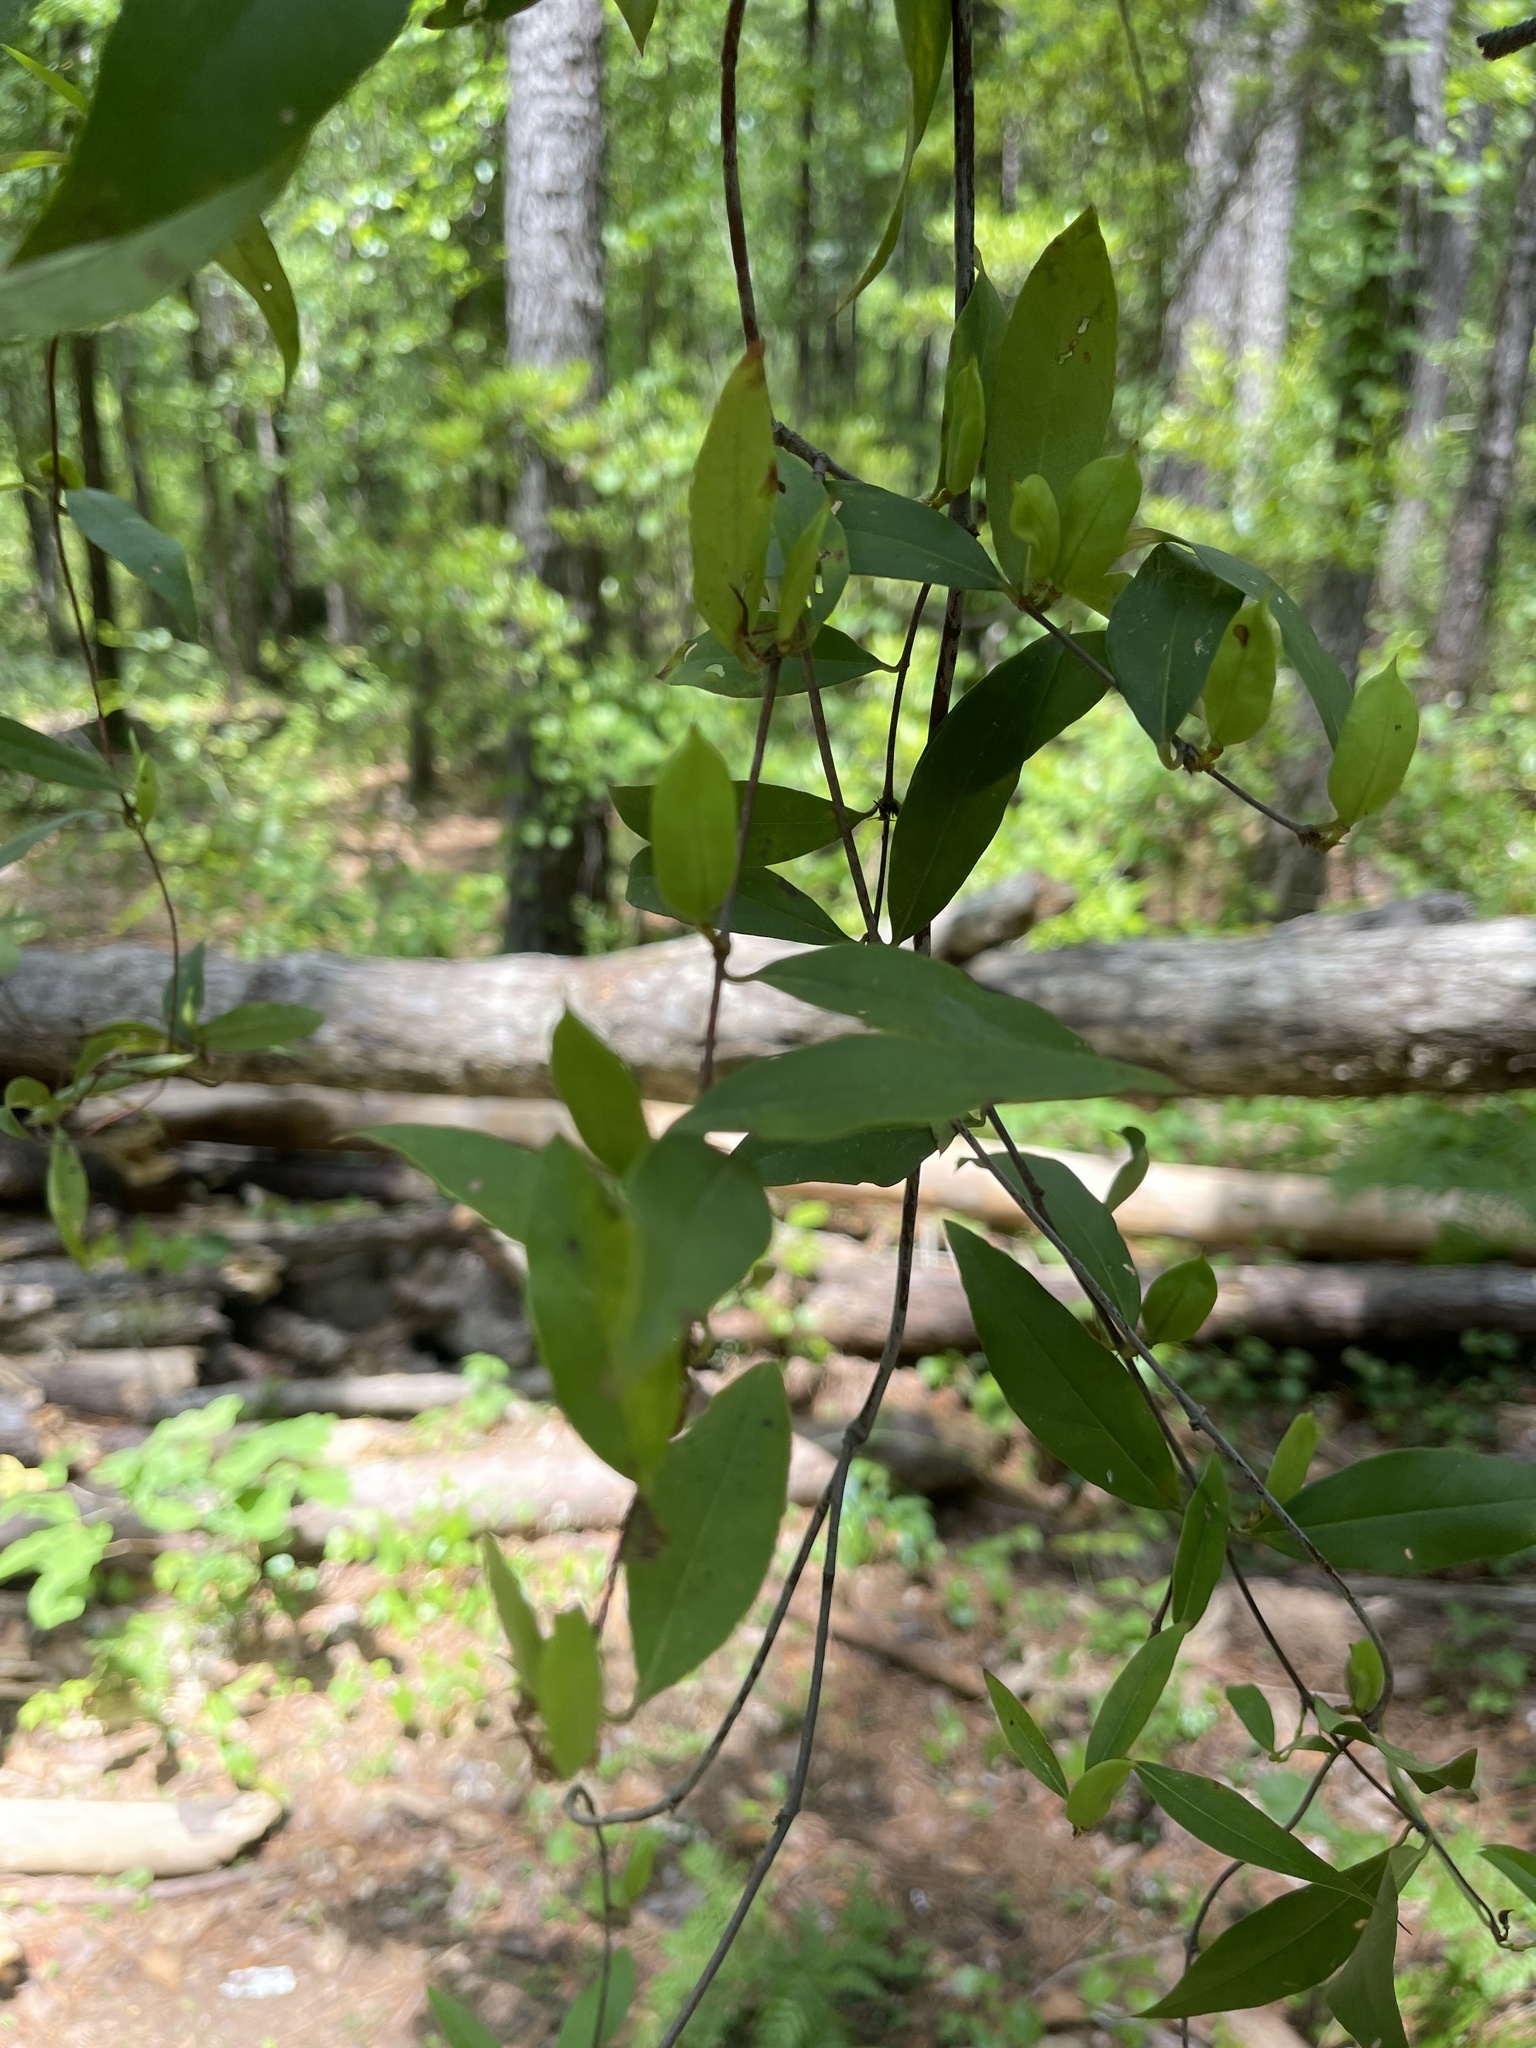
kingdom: Plantae
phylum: Tracheophyta
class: Magnoliopsida
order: Gentianales
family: Gelsemiaceae
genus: Gelsemium
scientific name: Gelsemium sempervirens
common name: Carolina-jasmine
